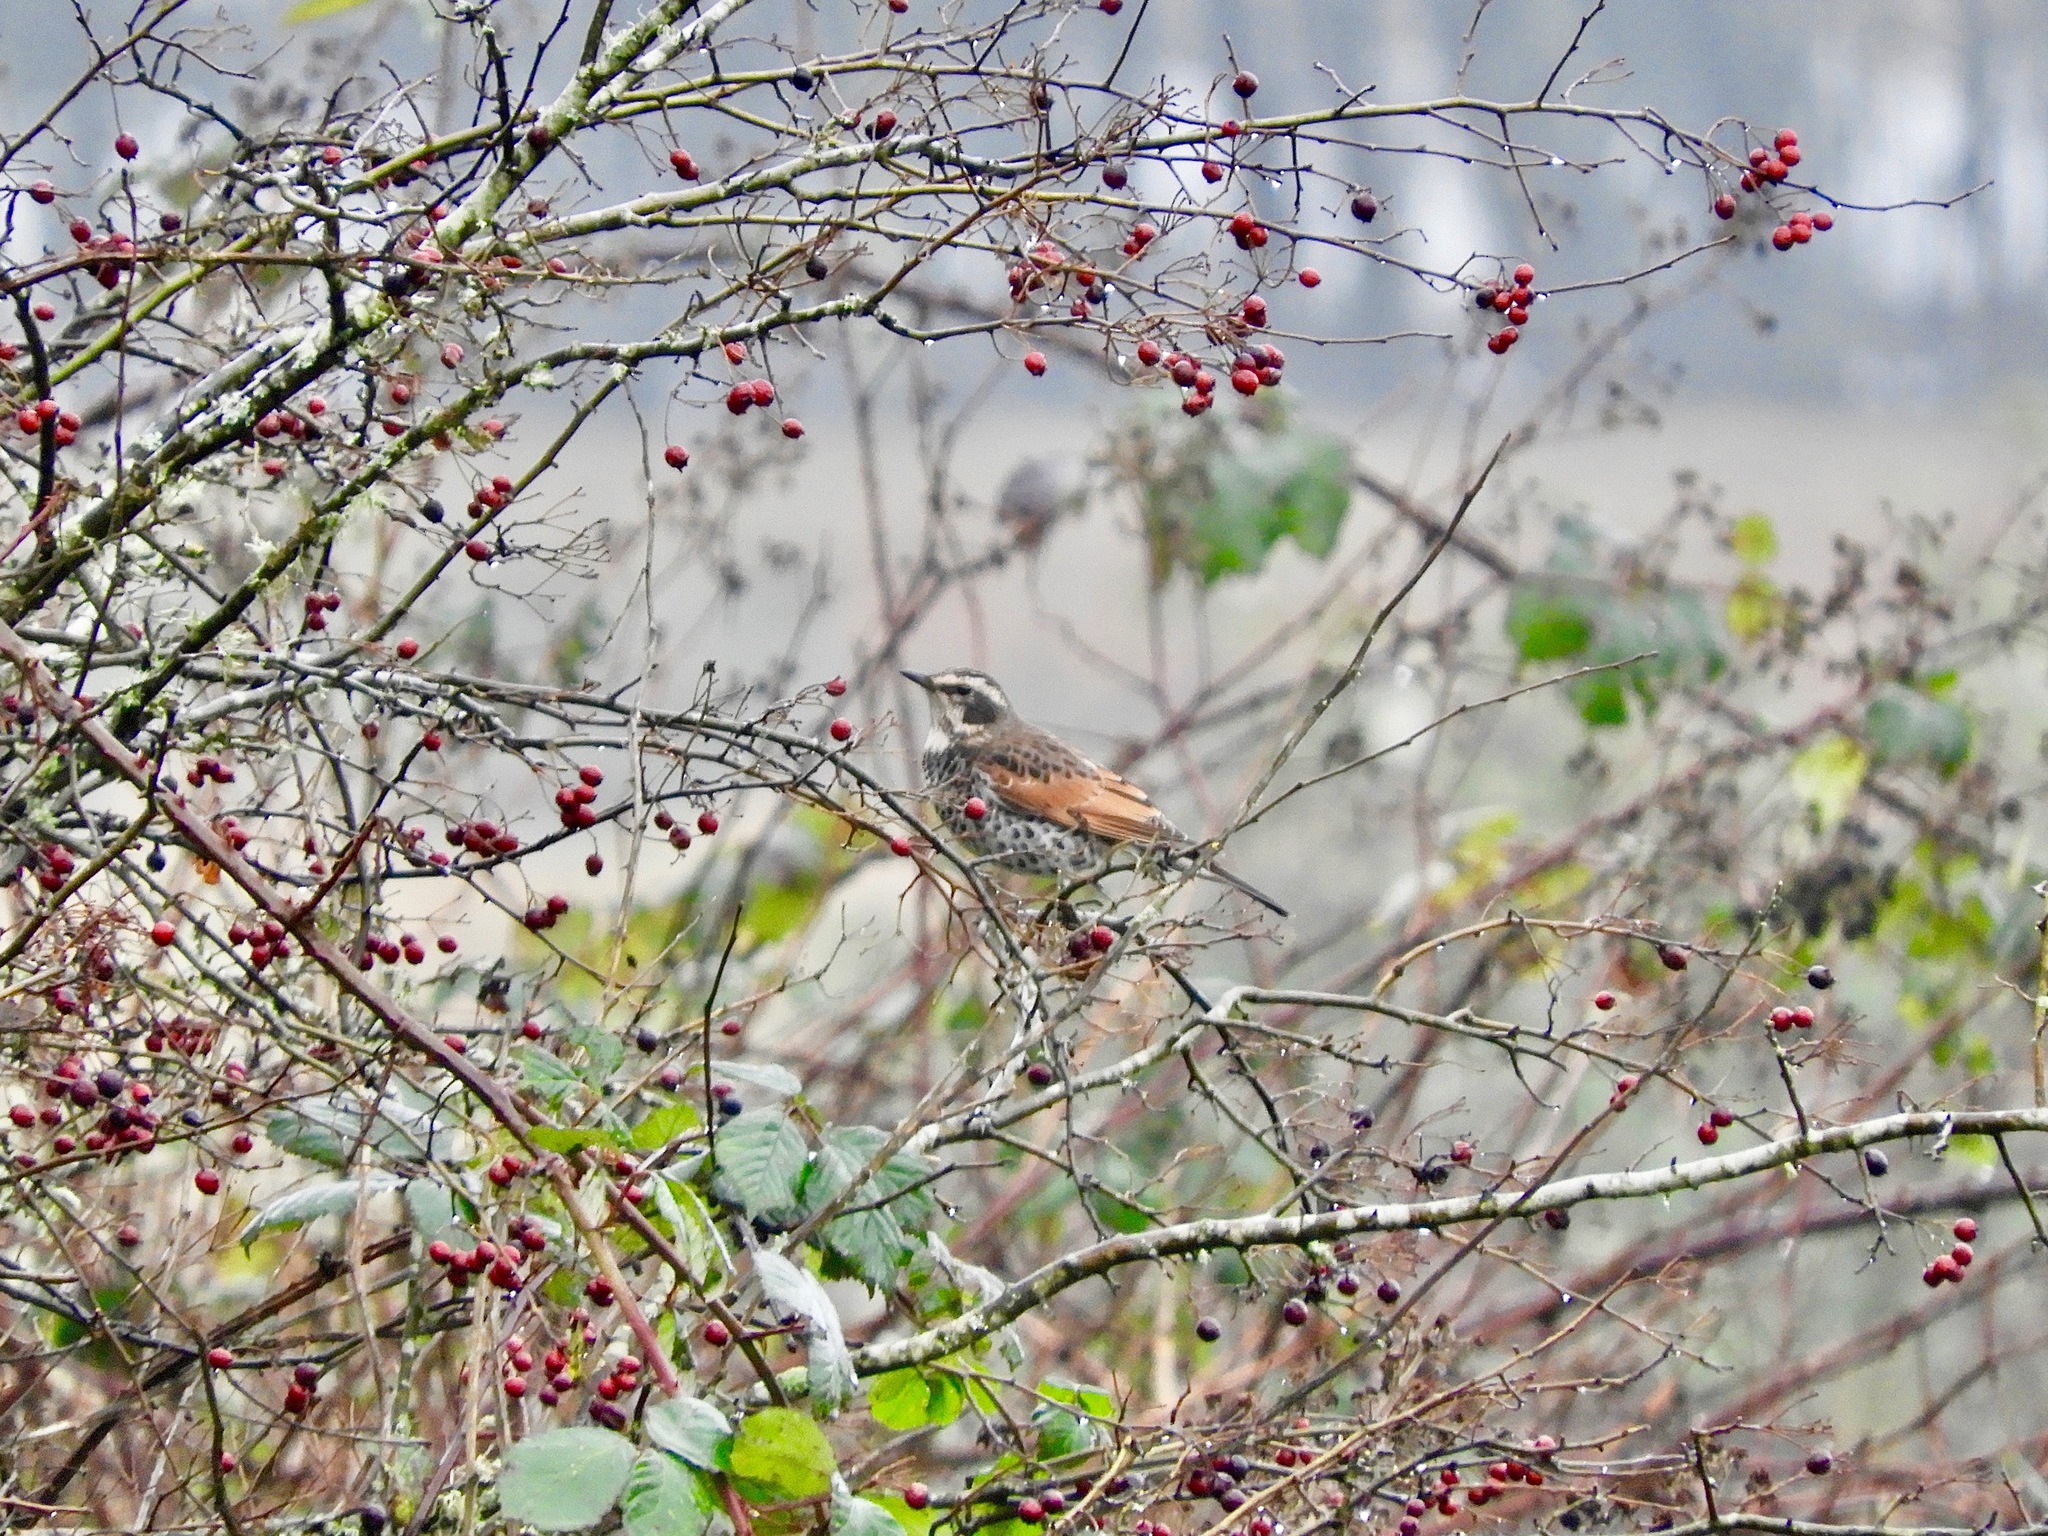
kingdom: Animalia
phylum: Chordata
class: Aves
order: Passeriformes
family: Turdidae
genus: Turdus
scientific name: Turdus eunomus
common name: Dusky thrush
